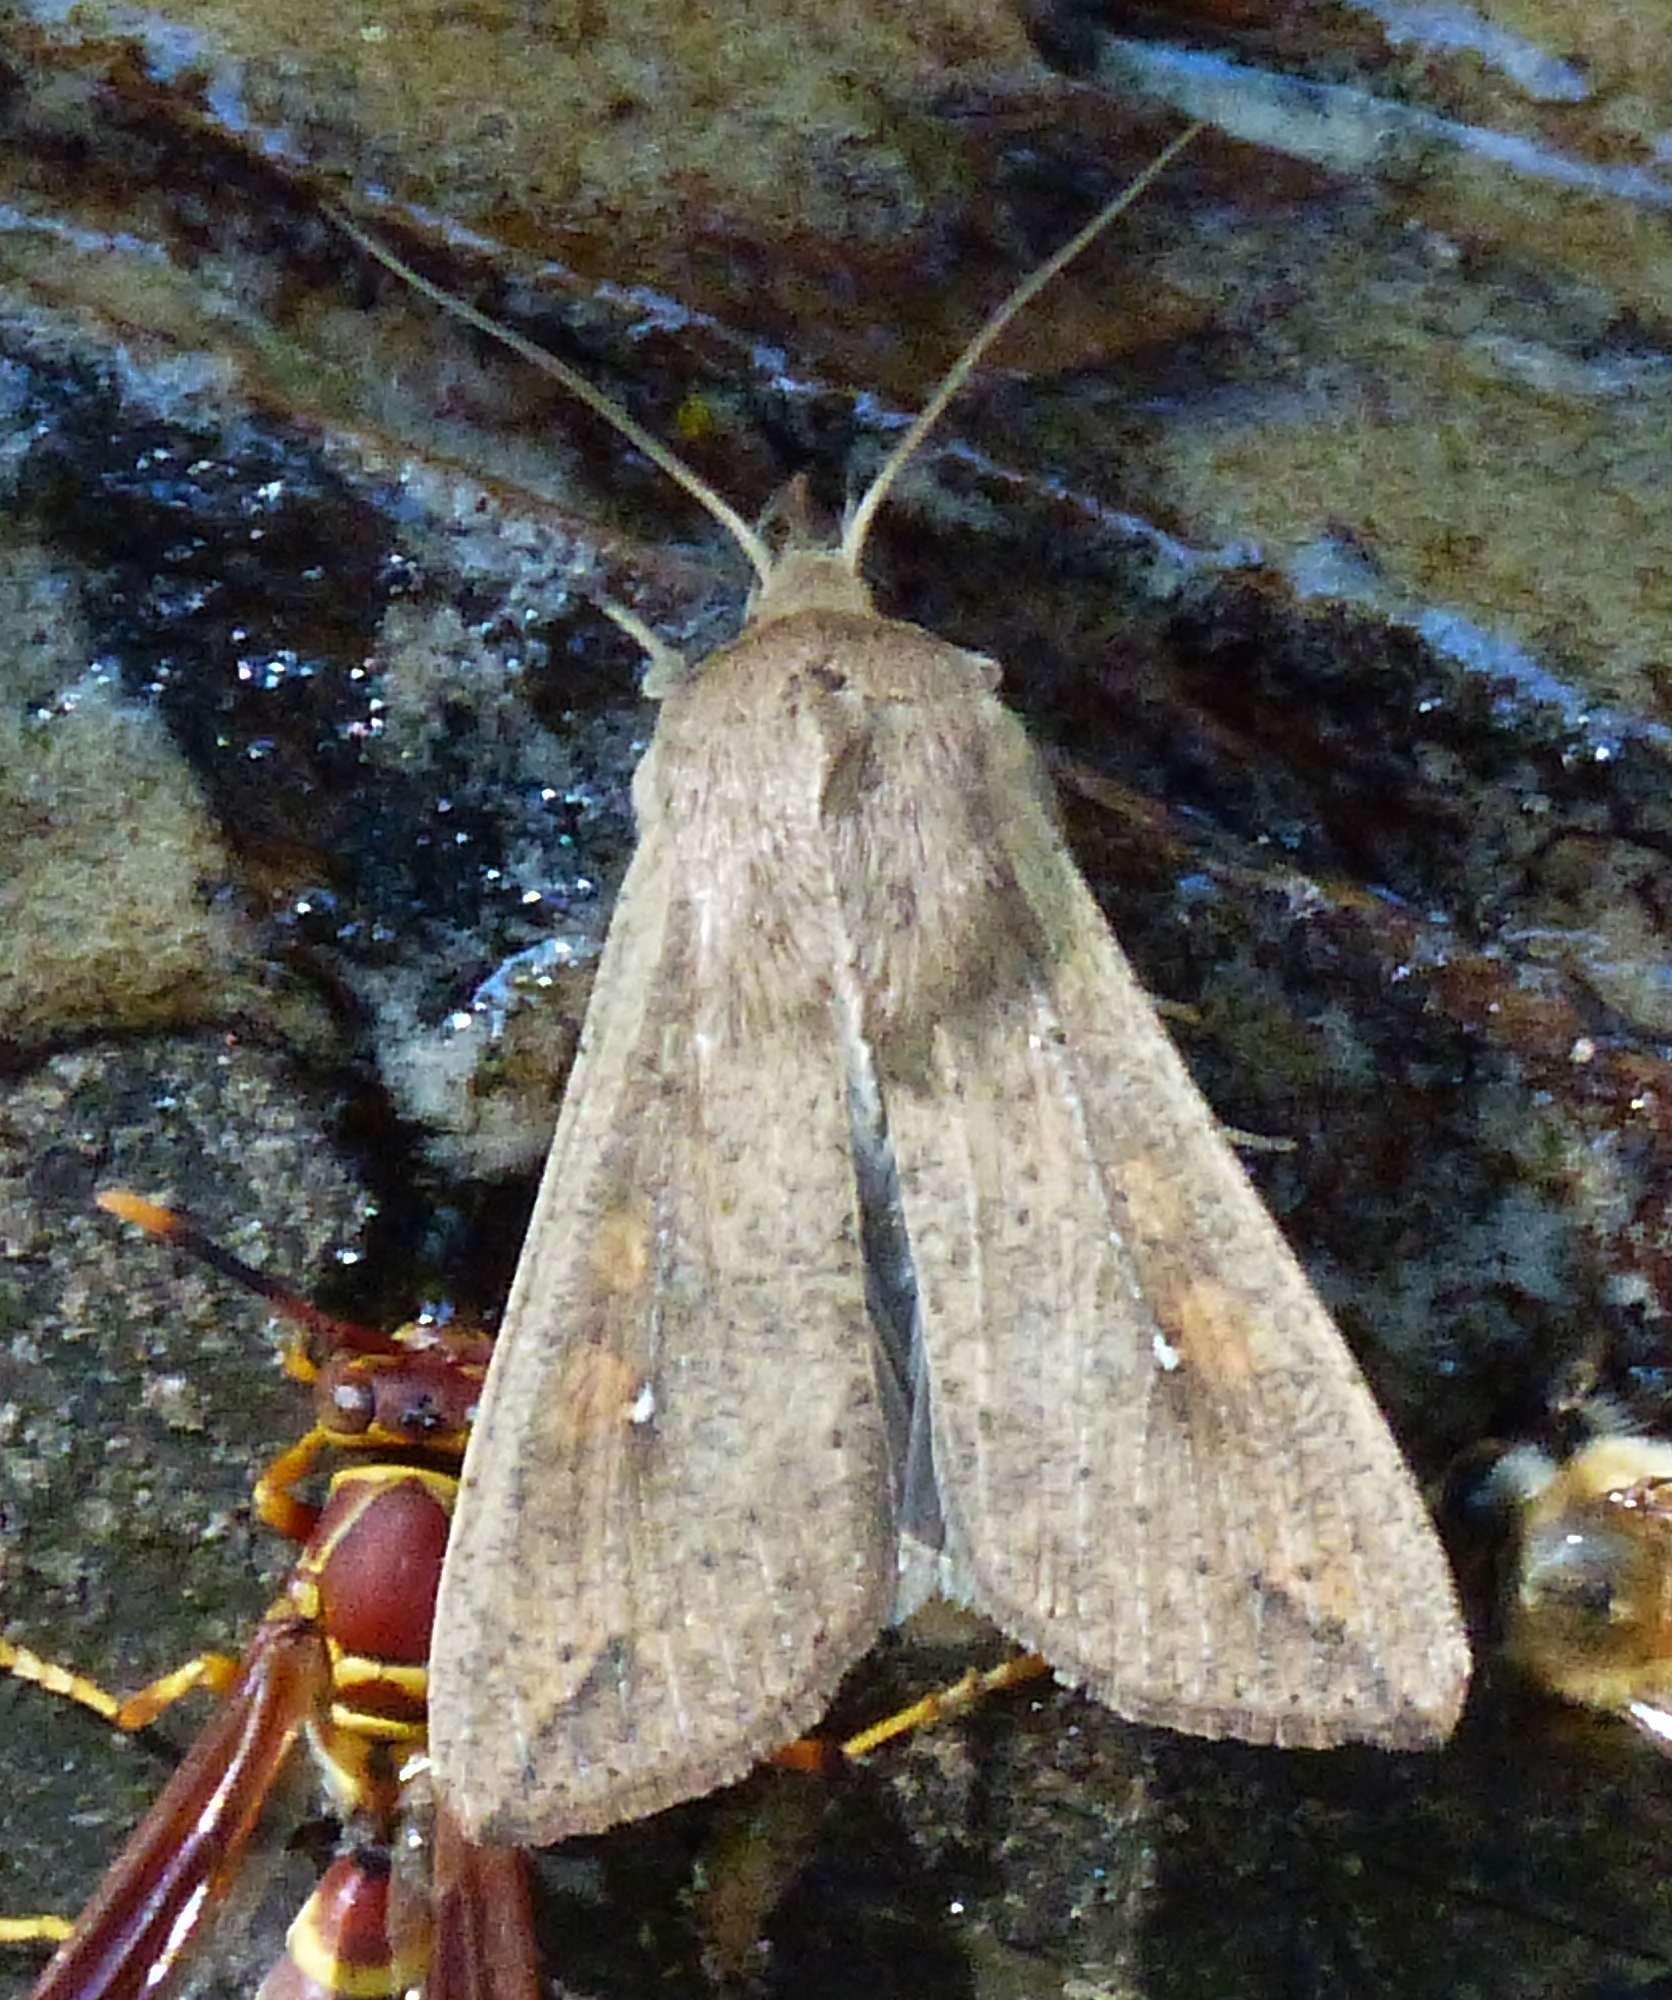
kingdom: Animalia
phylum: Arthropoda
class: Insecta
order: Lepidoptera
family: Noctuidae
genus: Mythimna
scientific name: Mythimna unipuncta
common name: White-speck
